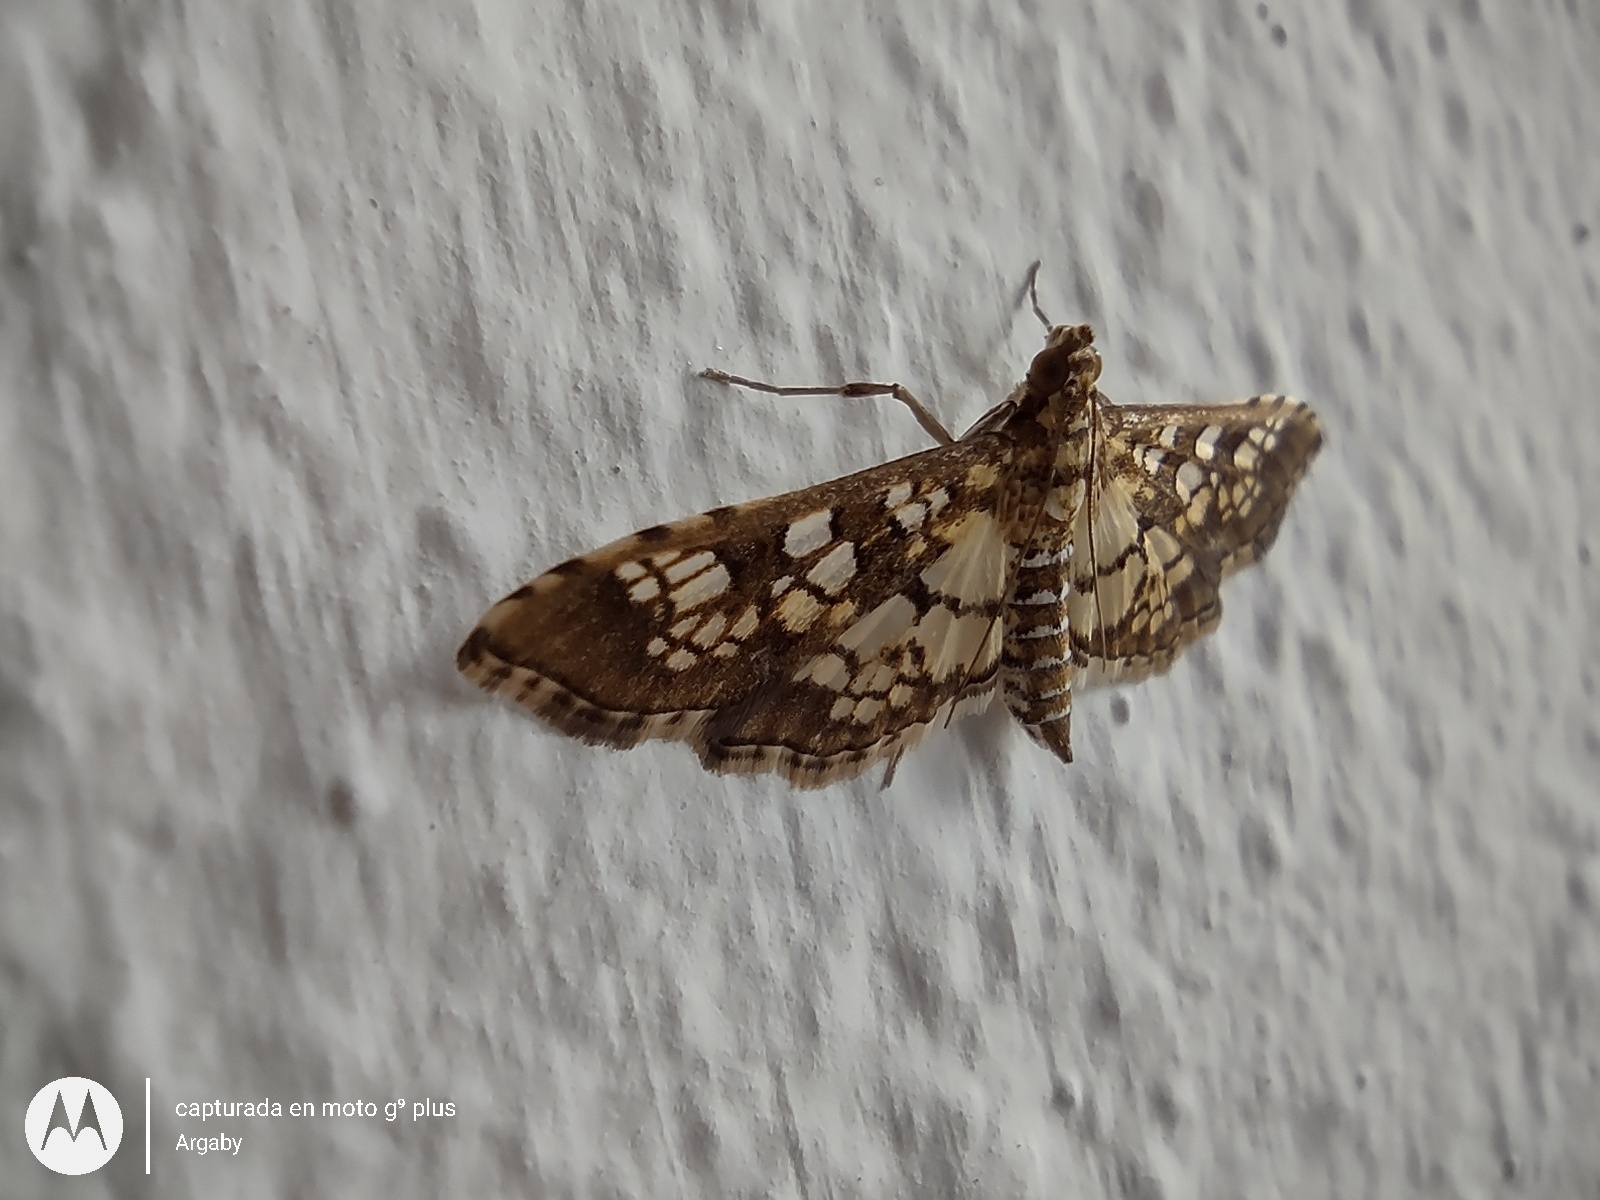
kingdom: Animalia
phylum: Arthropoda
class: Insecta
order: Lepidoptera
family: Crambidae
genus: Samea
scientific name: Samea ecclesialis
